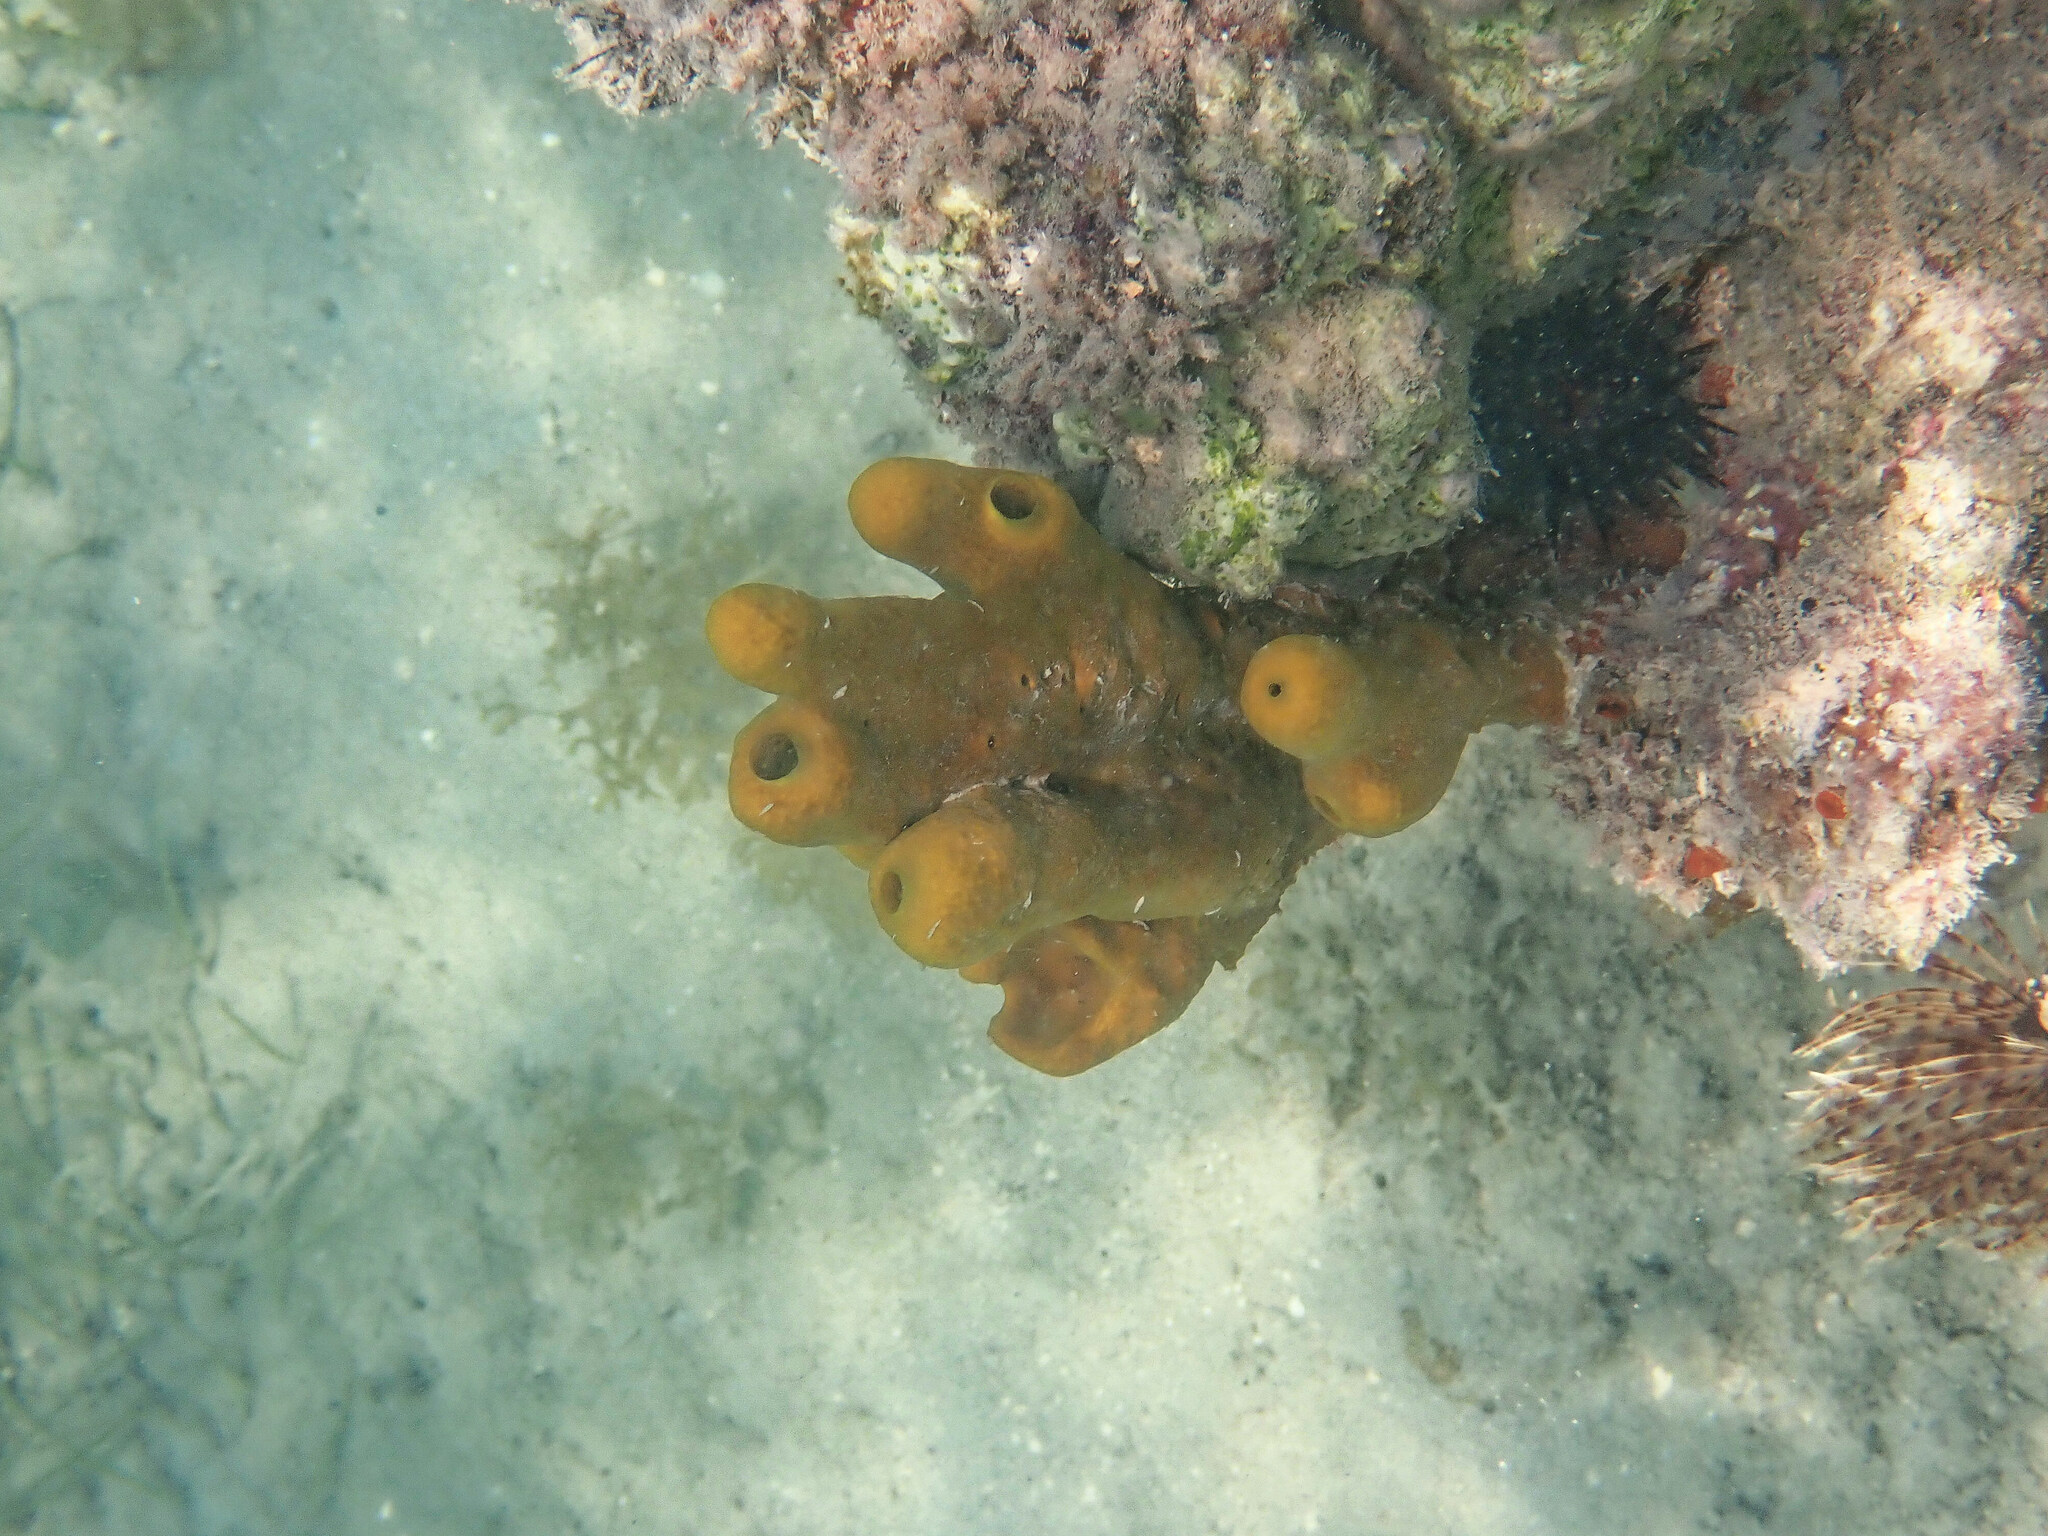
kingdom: Animalia
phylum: Porifera
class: Demospongiae
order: Verongiida
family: Aplysinidae
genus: Aplysina
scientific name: Aplysina fistularis
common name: Candle sponge
